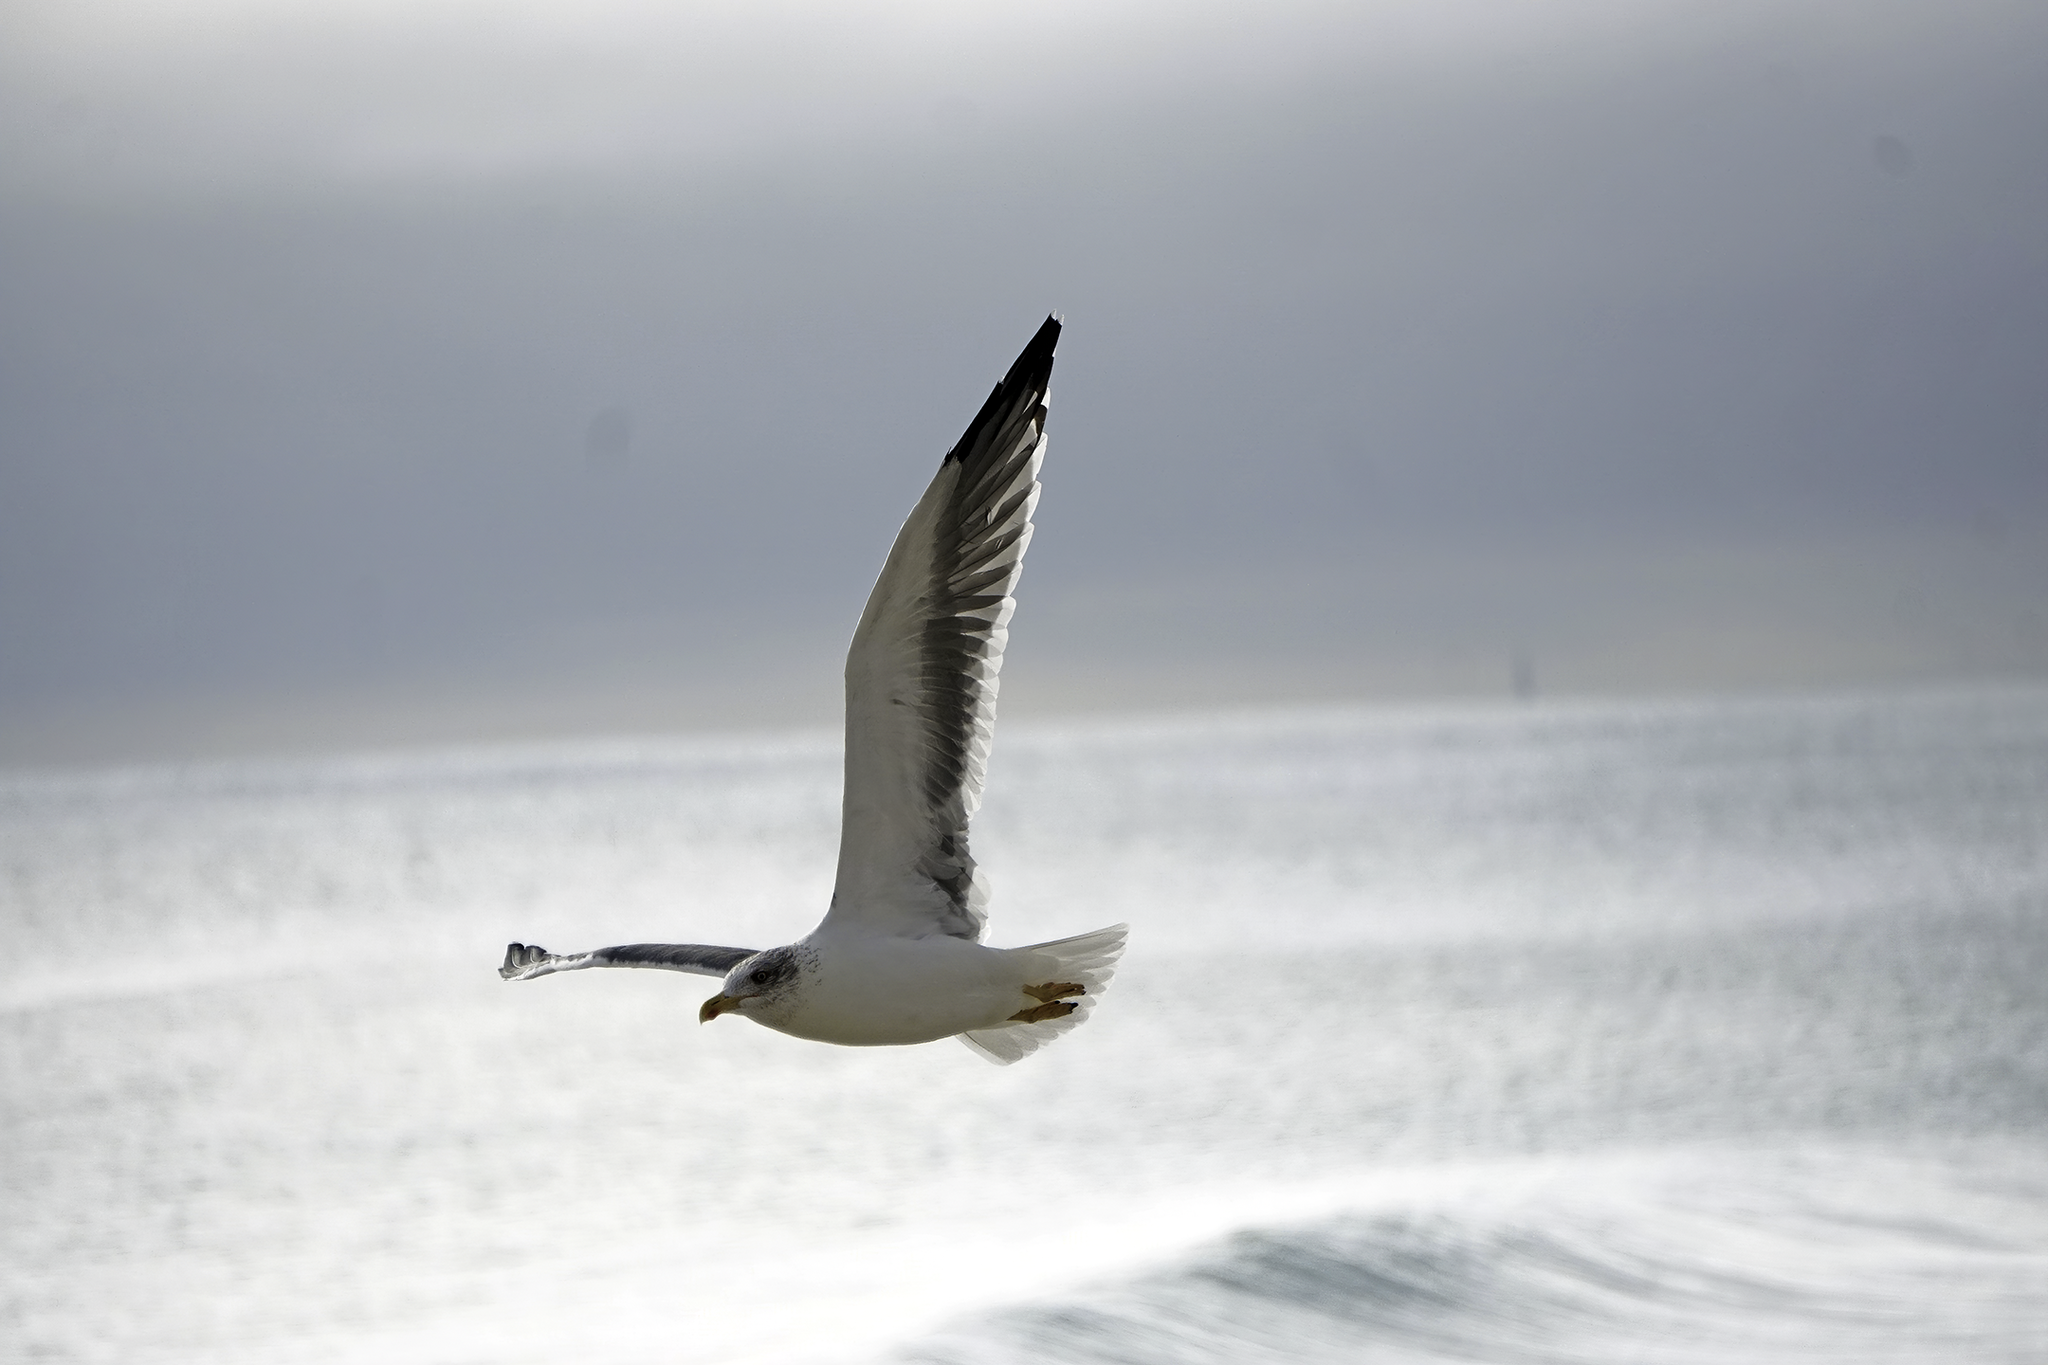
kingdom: Animalia
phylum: Chordata
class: Aves
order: Charadriiformes
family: Laridae
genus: Larus
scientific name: Larus fuscus
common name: Lesser black-backed gull
